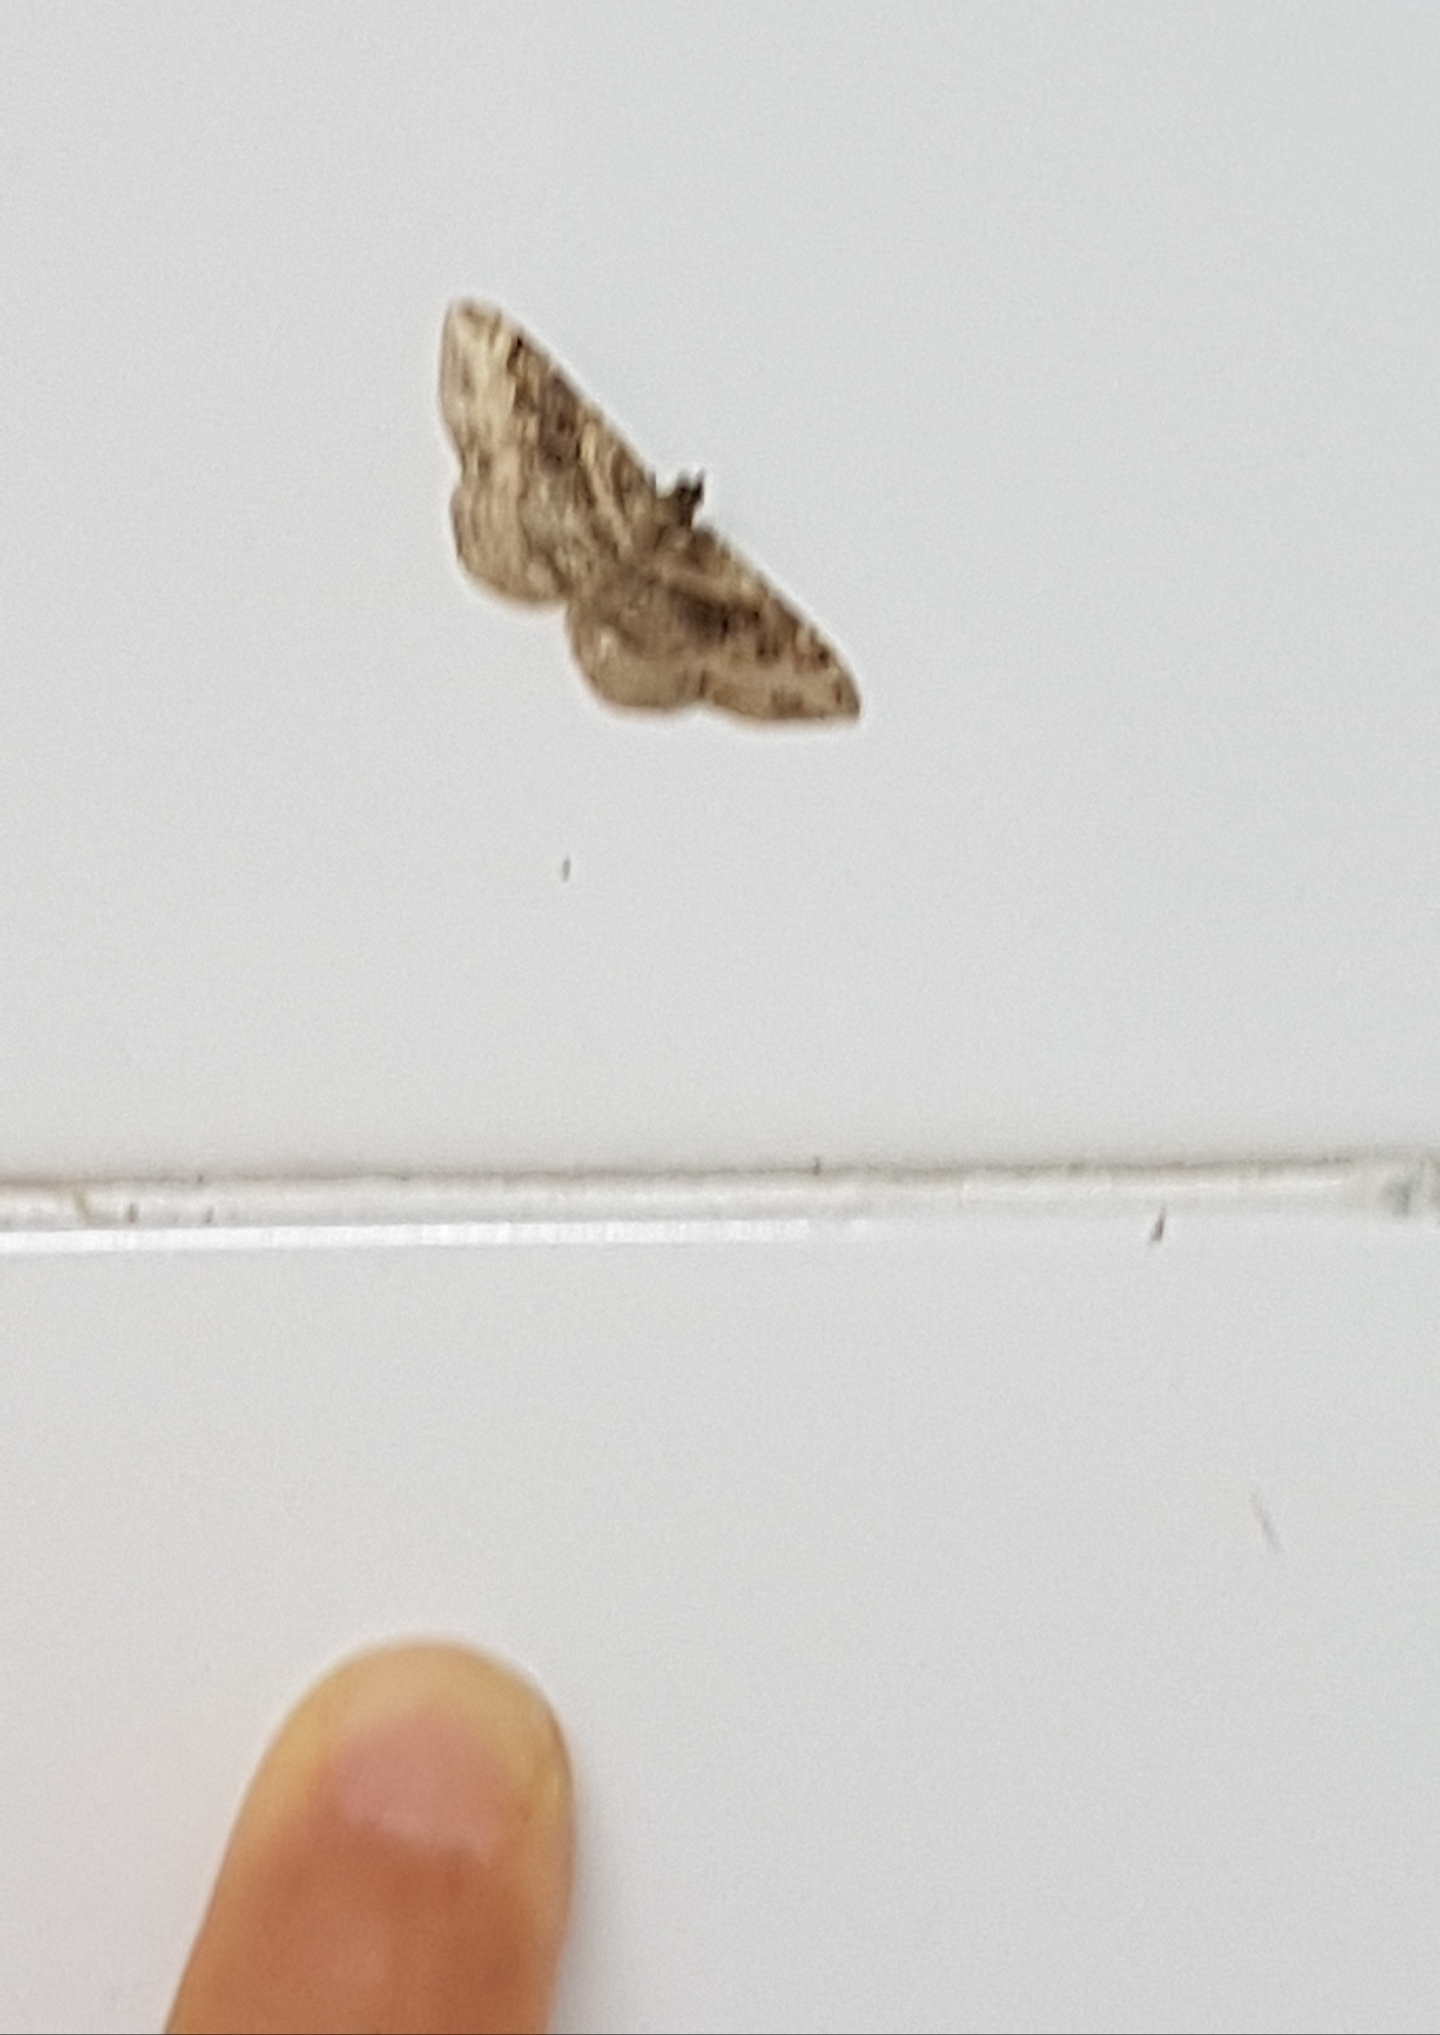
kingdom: Animalia
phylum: Arthropoda
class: Insecta
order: Lepidoptera
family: Geometridae
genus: Costaconvexa
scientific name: Costaconvexa centrostrigaria
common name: Bent-line carpet
